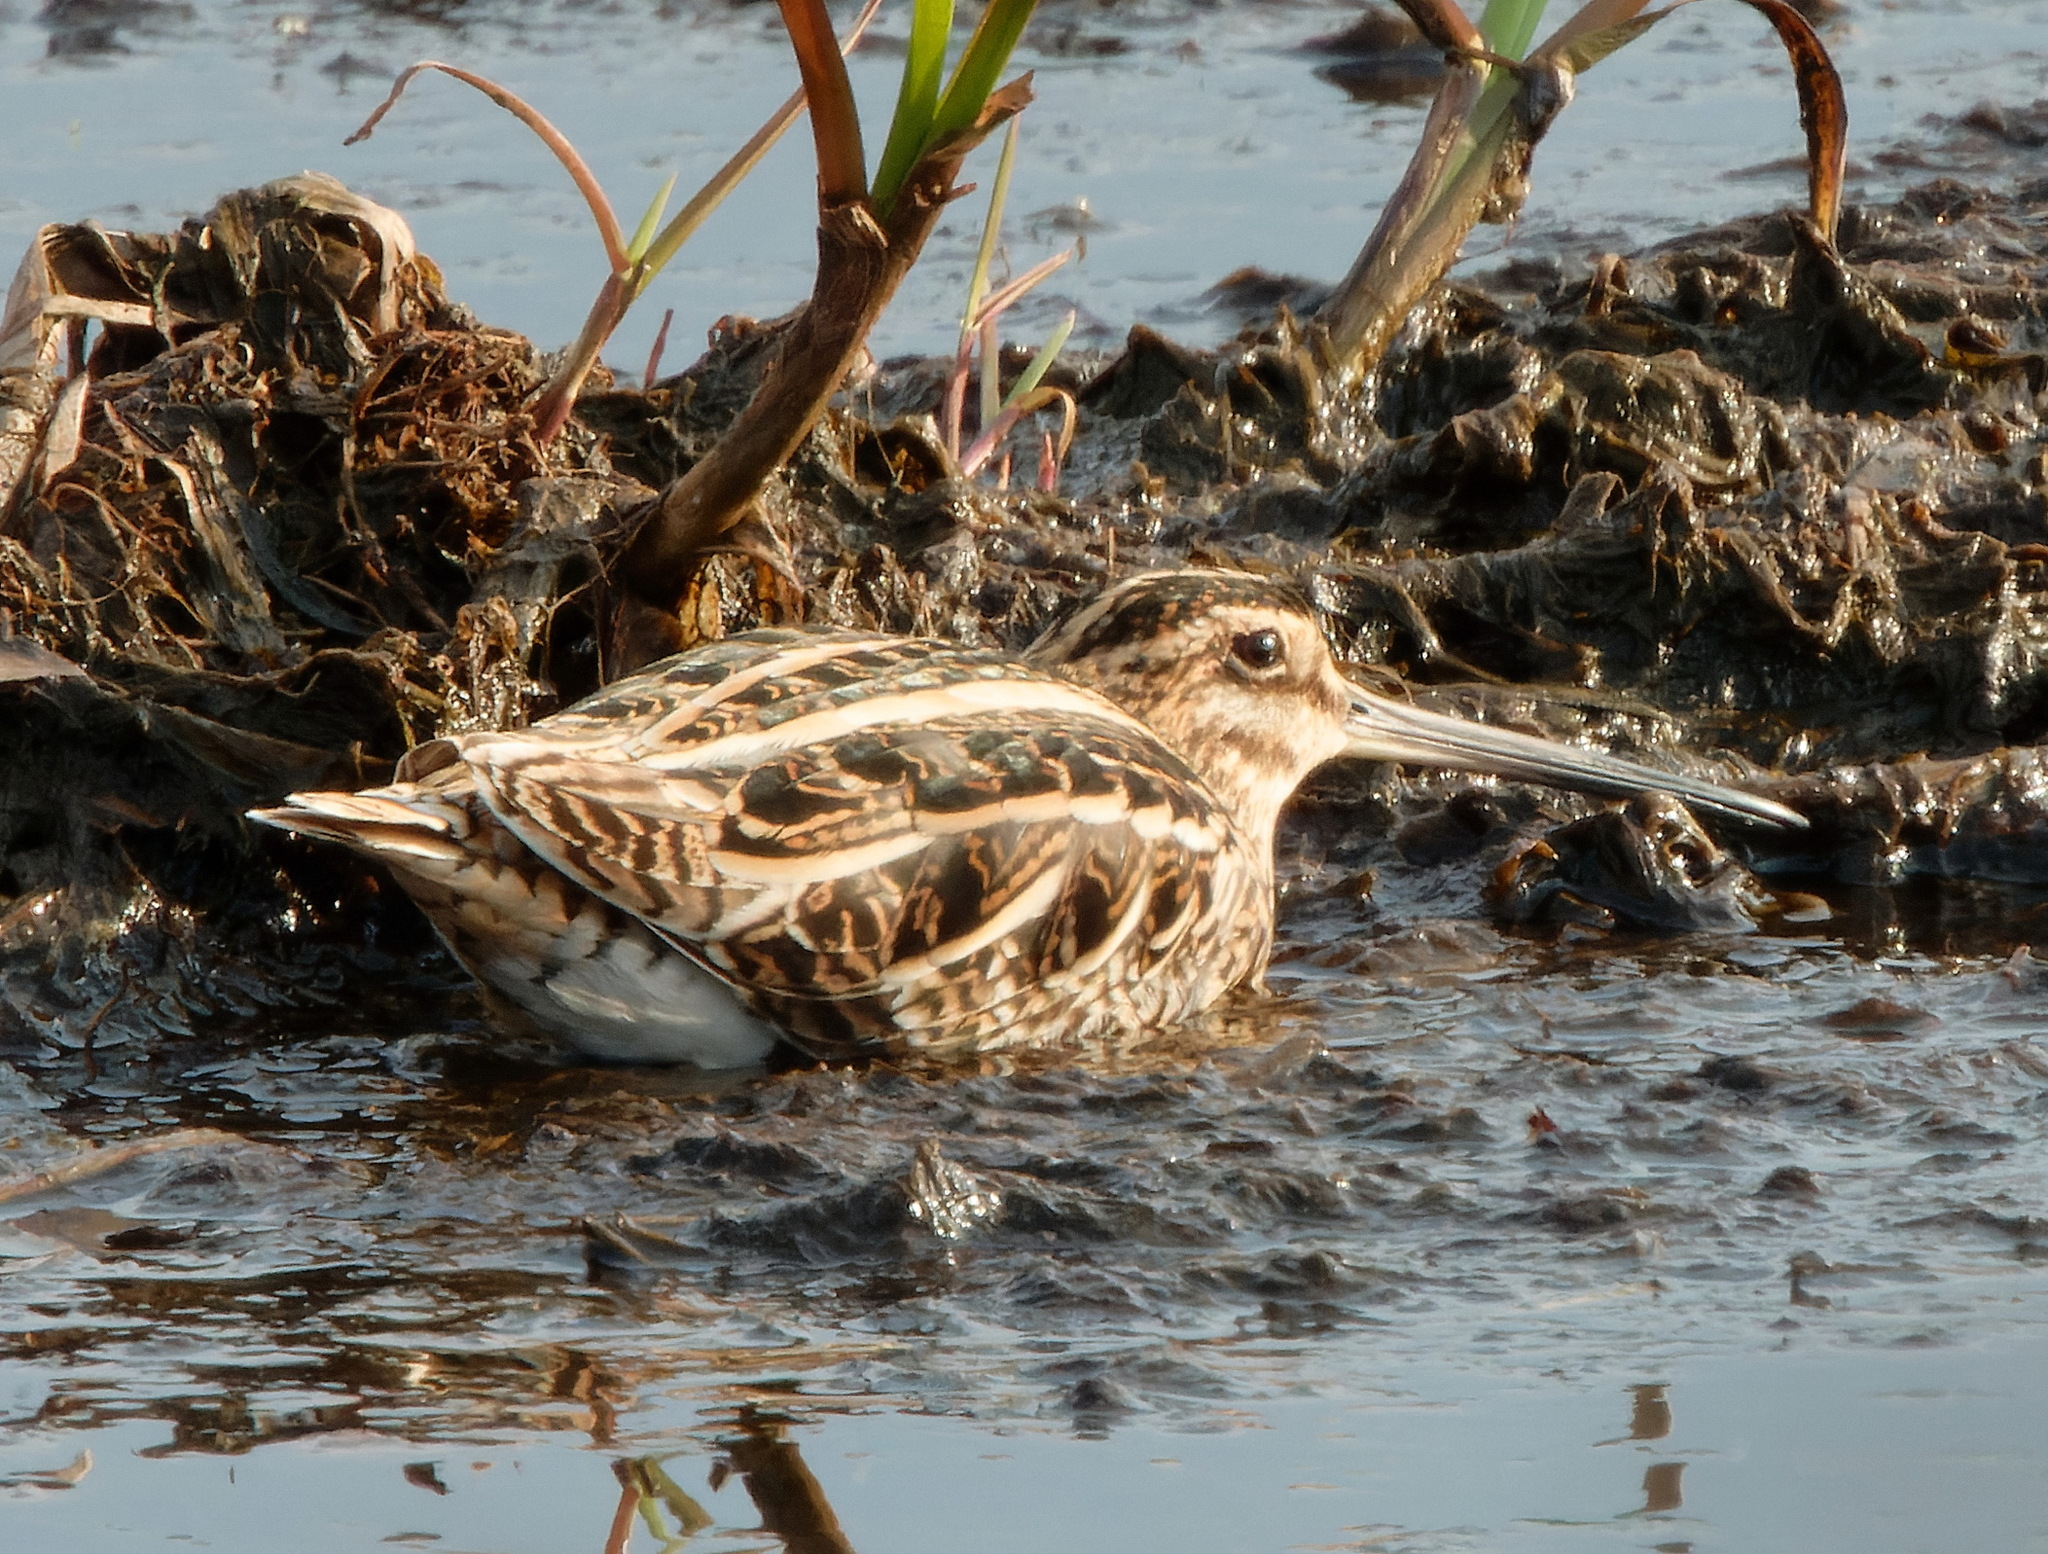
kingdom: Animalia
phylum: Chordata
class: Aves
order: Charadriiformes
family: Scolopacidae
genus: Gallinago
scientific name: Gallinago gallinago
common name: Common snipe
